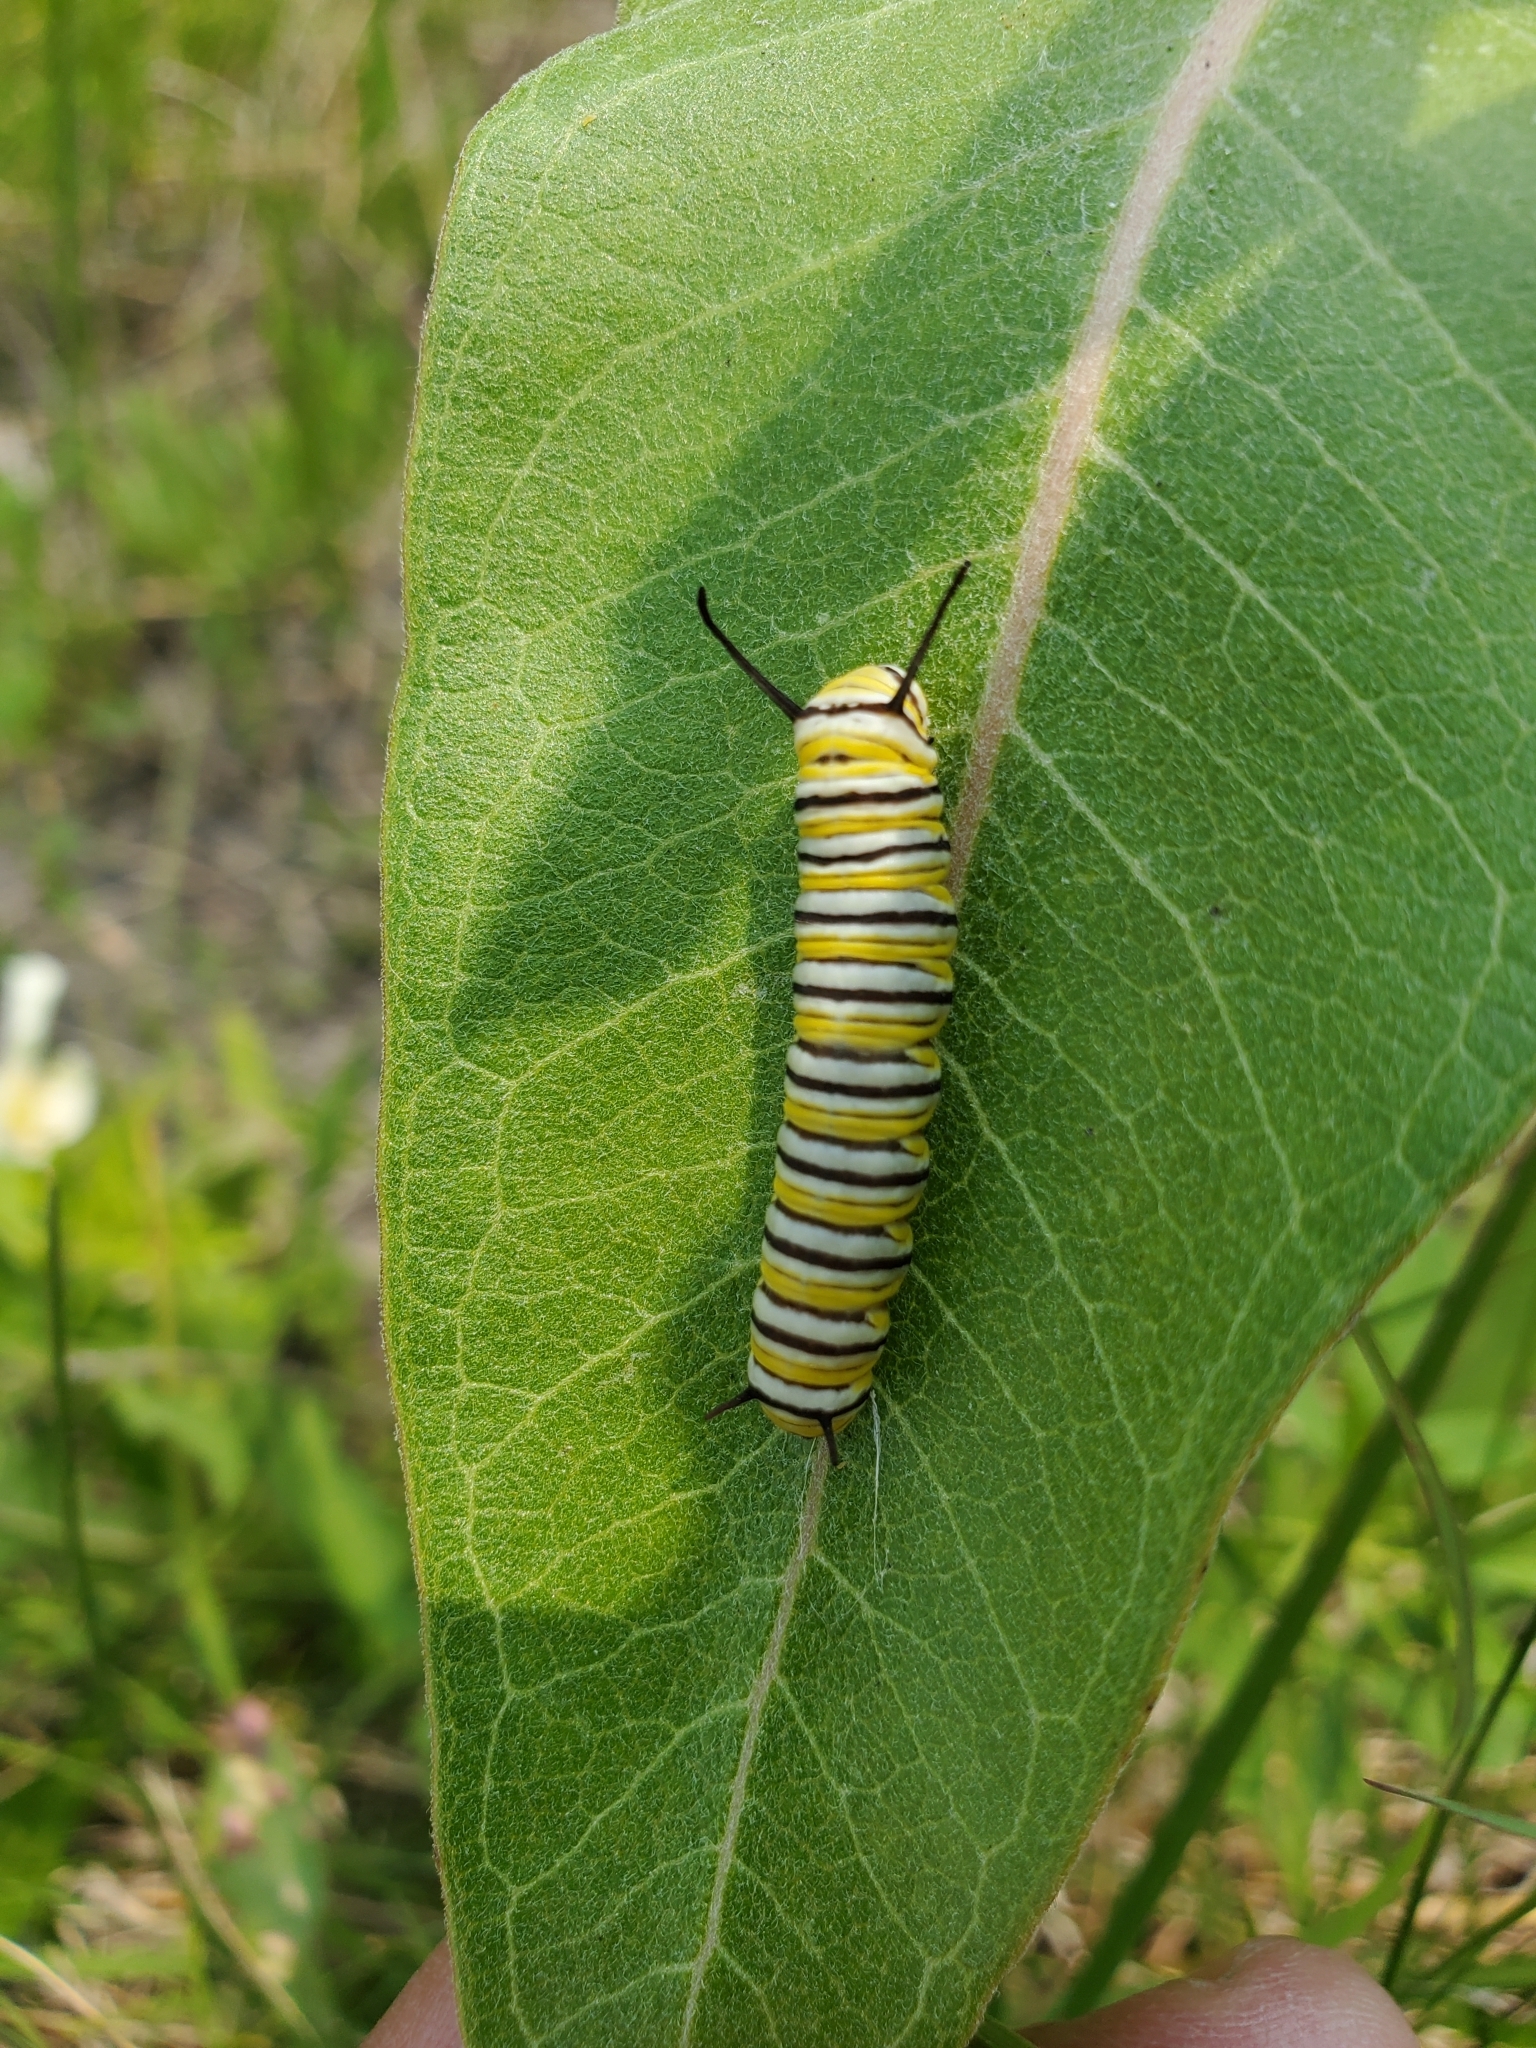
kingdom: Animalia
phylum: Arthropoda
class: Insecta
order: Lepidoptera
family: Nymphalidae
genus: Danaus
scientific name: Danaus plexippus
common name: Monarch
